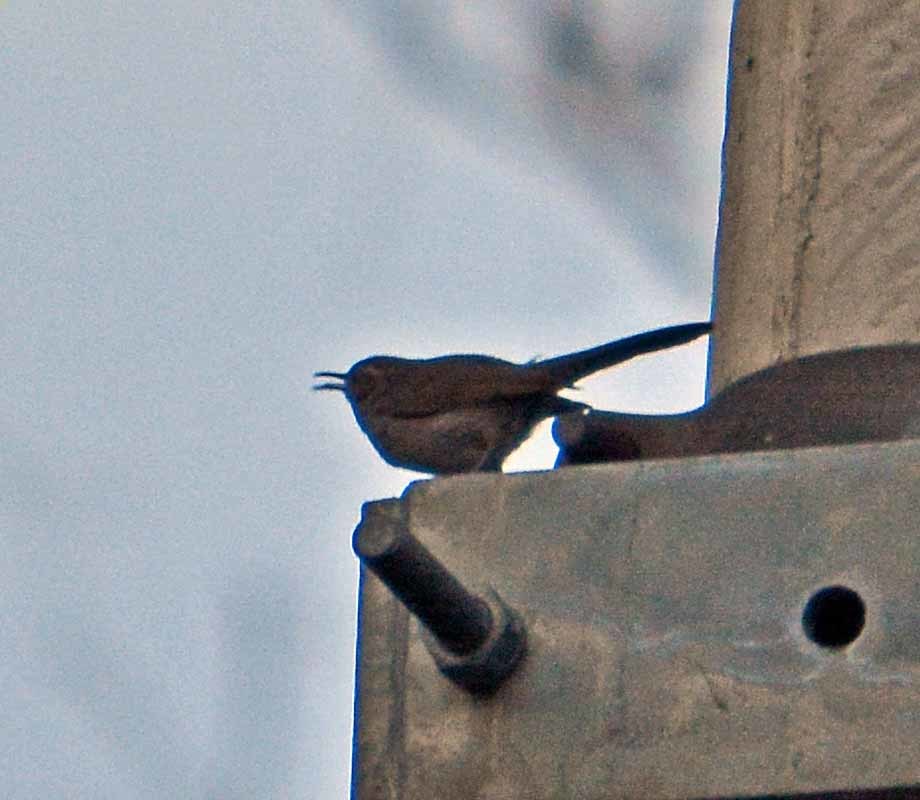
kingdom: Animalia
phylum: Chordata
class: Aves
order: Passeriformes
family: Troglodytidae
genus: Thryomanes
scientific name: Thryomanes bewickii
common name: Bewick's wren
